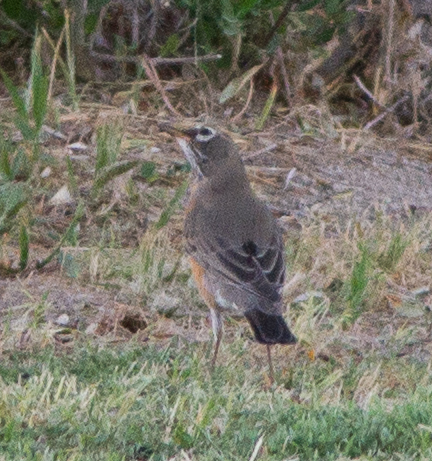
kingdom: Animalia
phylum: Chordata
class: Aves
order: Passeriformes
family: Turdidae
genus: Turdus
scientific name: Turdus migratorius
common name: American robin
